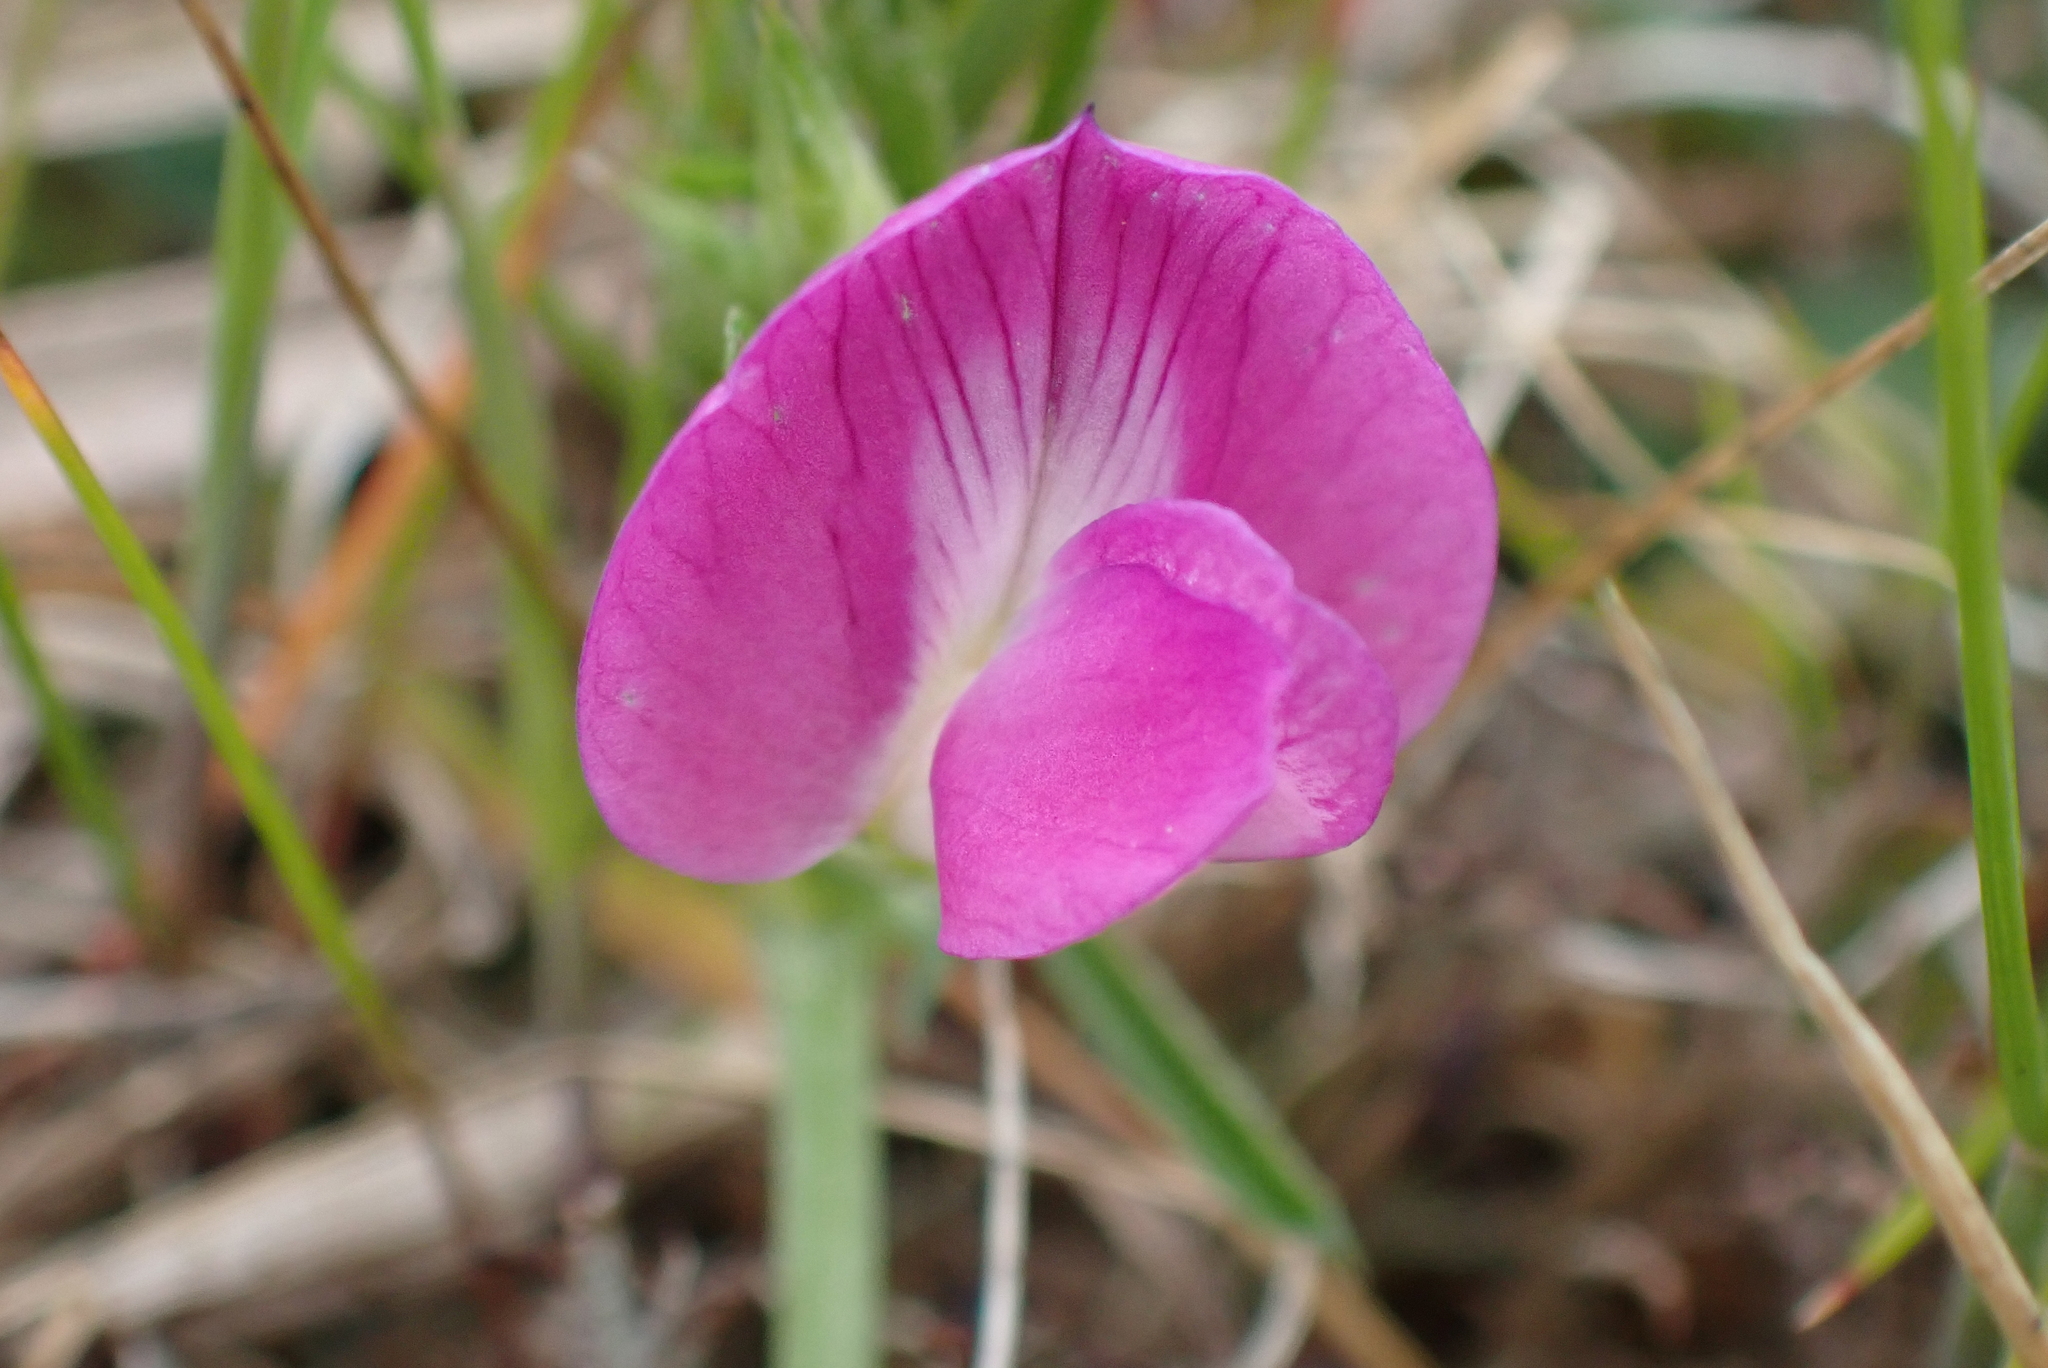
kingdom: Plantae
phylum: Tracheophyta
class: Magnoliopsida
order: Fabales
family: Fabaceae
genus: Vicia
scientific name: Vicia sativa
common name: Garden vetch
